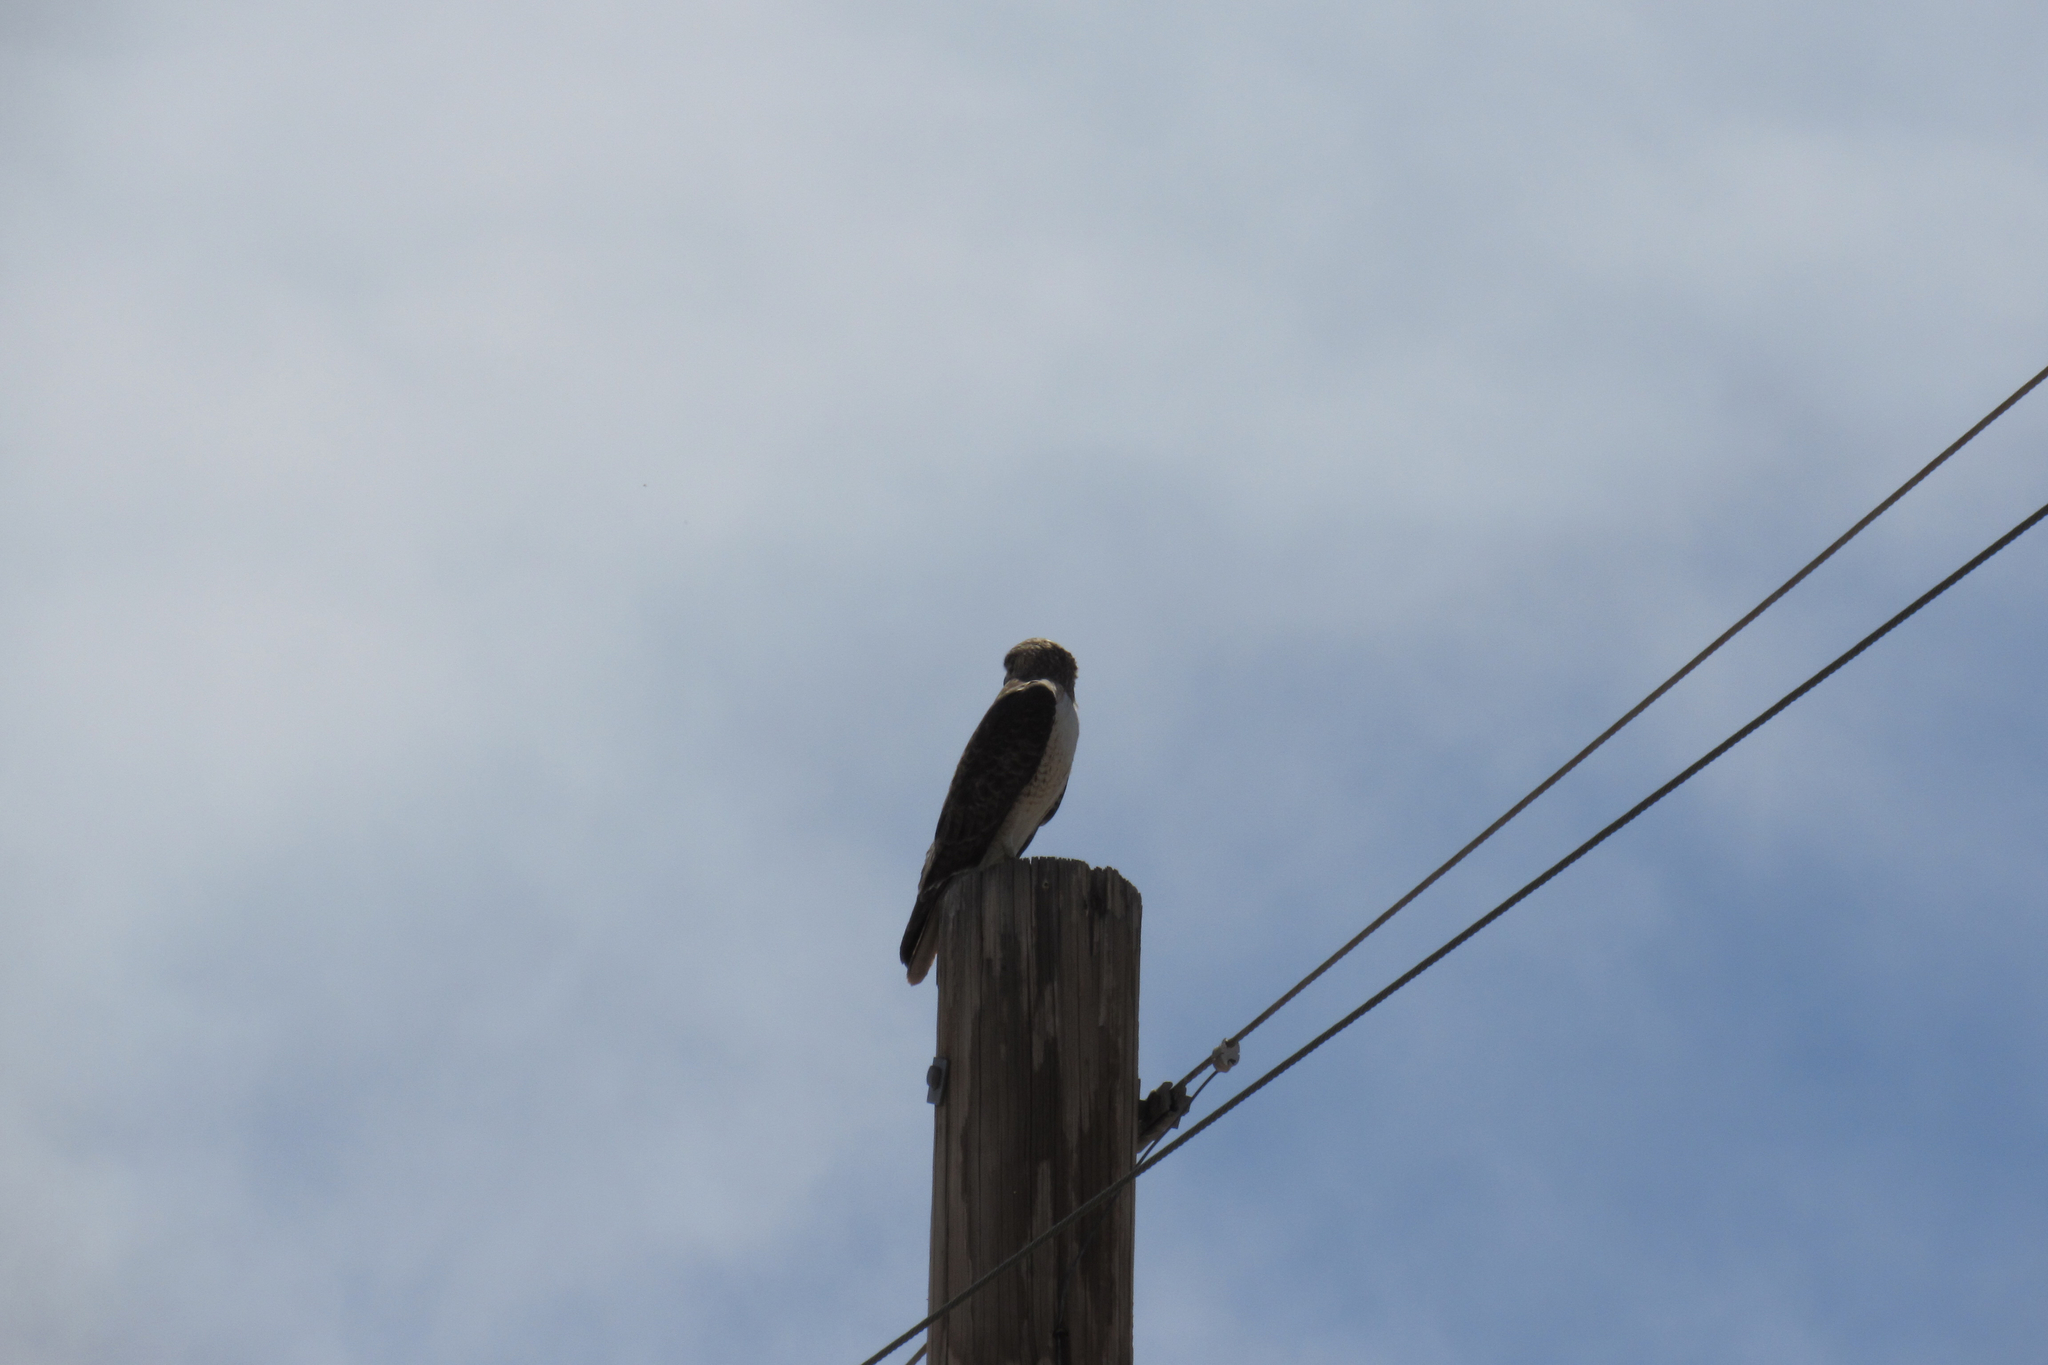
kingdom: Animalia
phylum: Chordata
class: Aves
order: Accipitriformes
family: Accipitridae
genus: Buteo
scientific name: Buteo jamaicensis
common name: Red-tailed hawk
